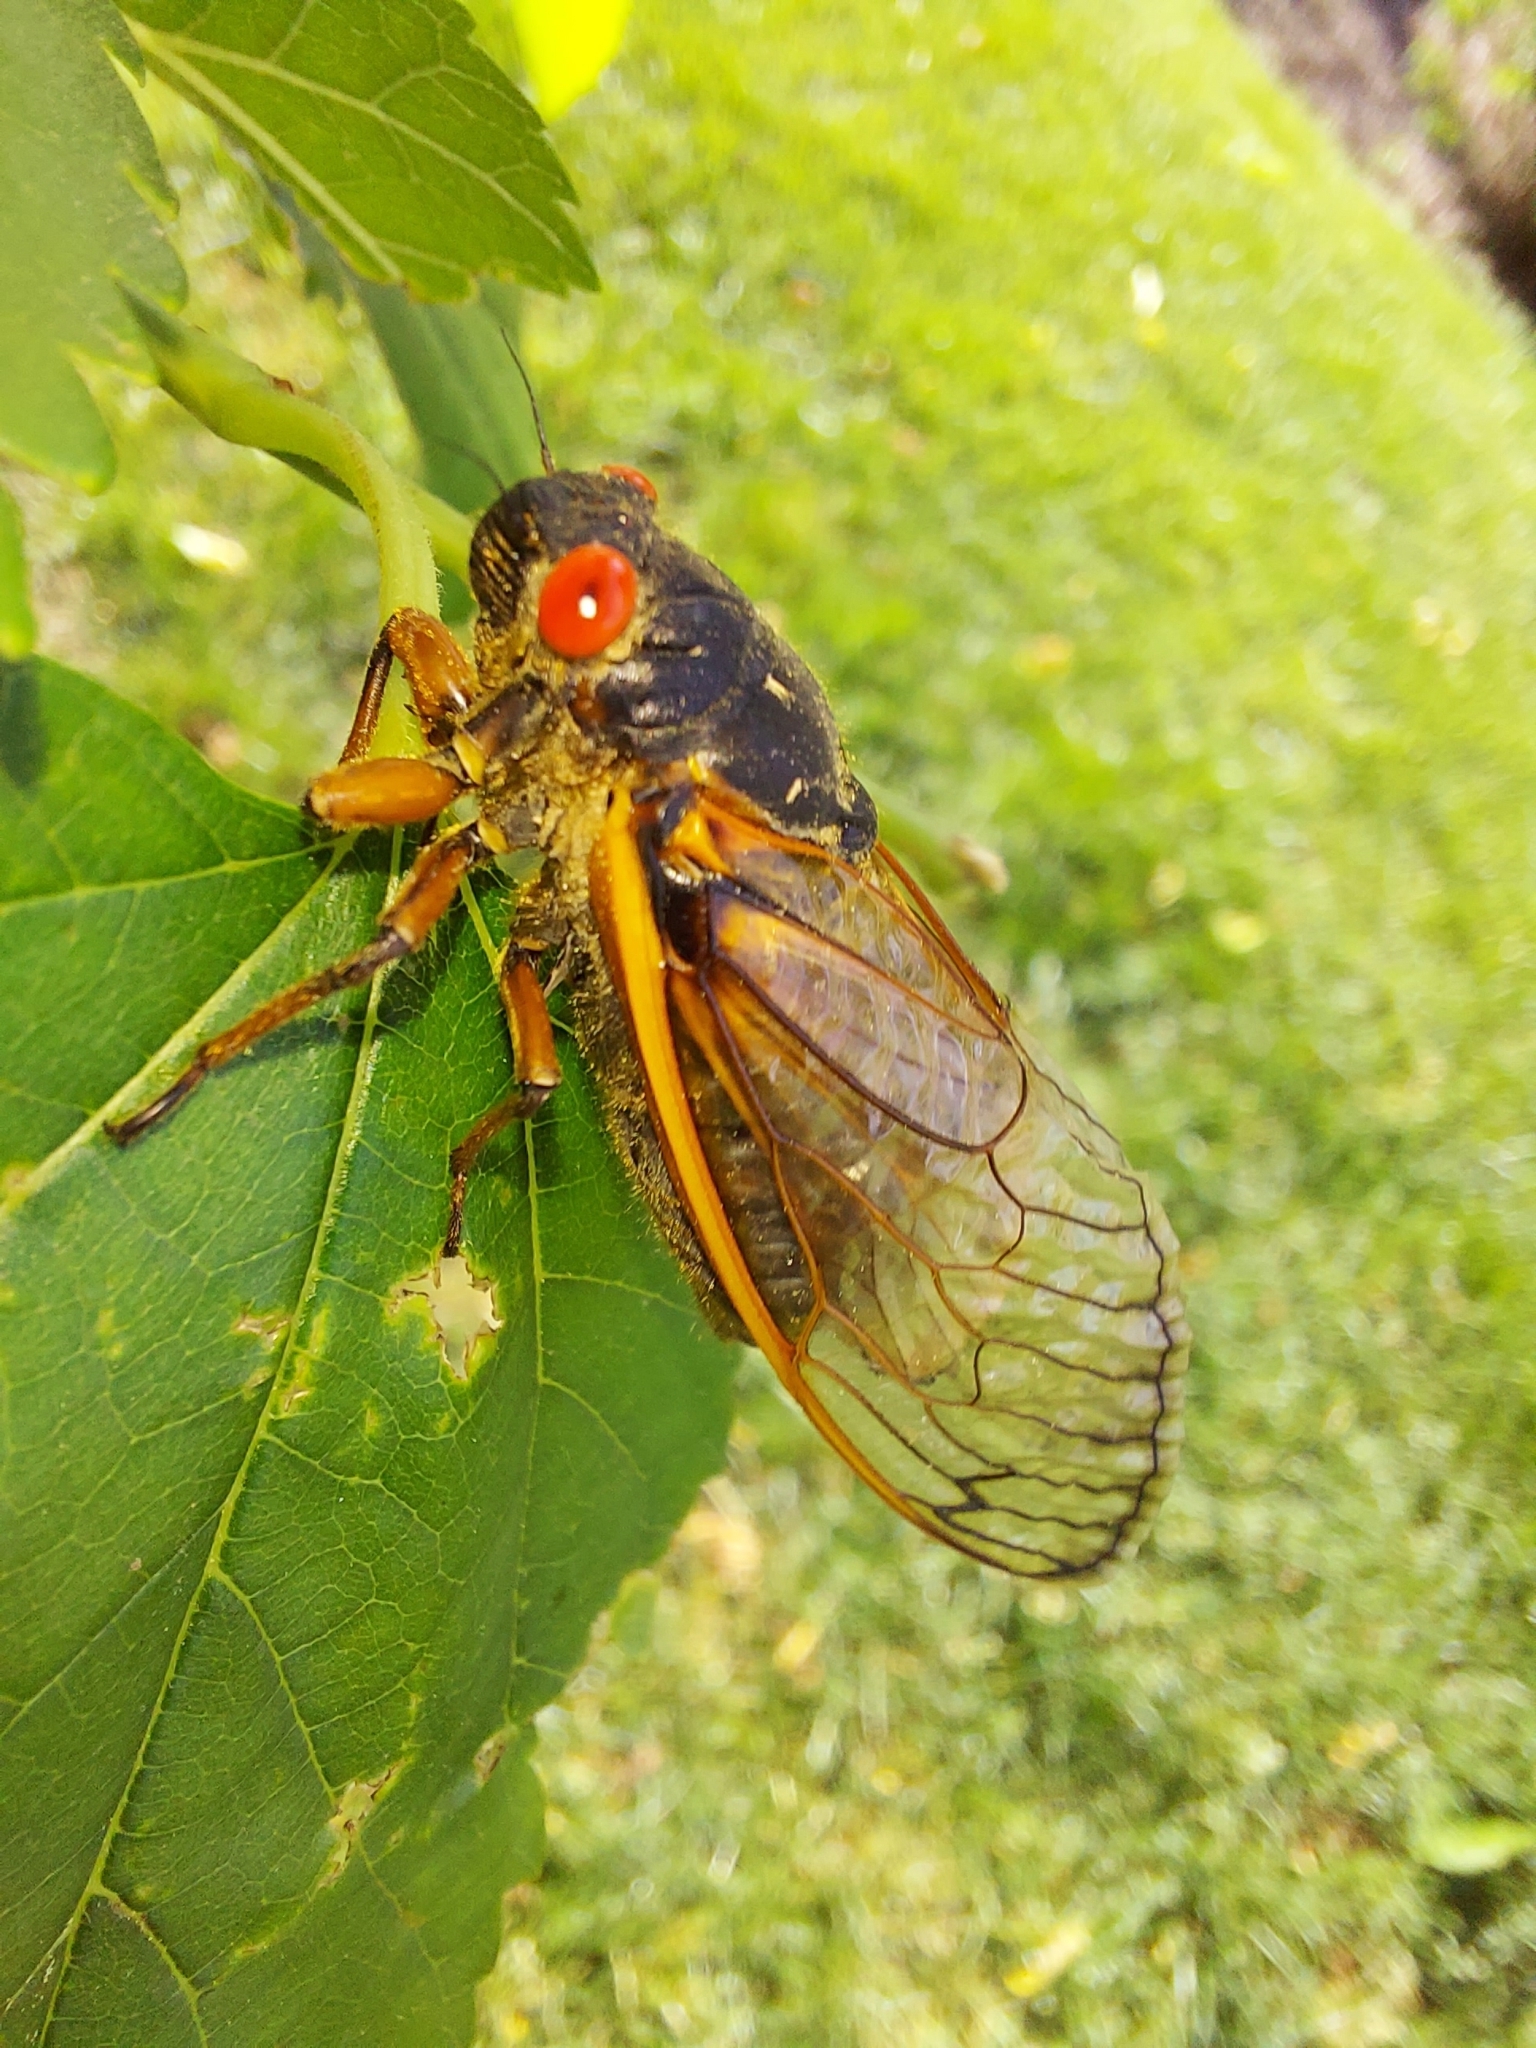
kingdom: Animalia
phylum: Arthropoda
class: Insecta
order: Hemiptera
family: Cicadidae
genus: Magicicada
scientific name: Magicicada septendecim
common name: Periodical cicada
